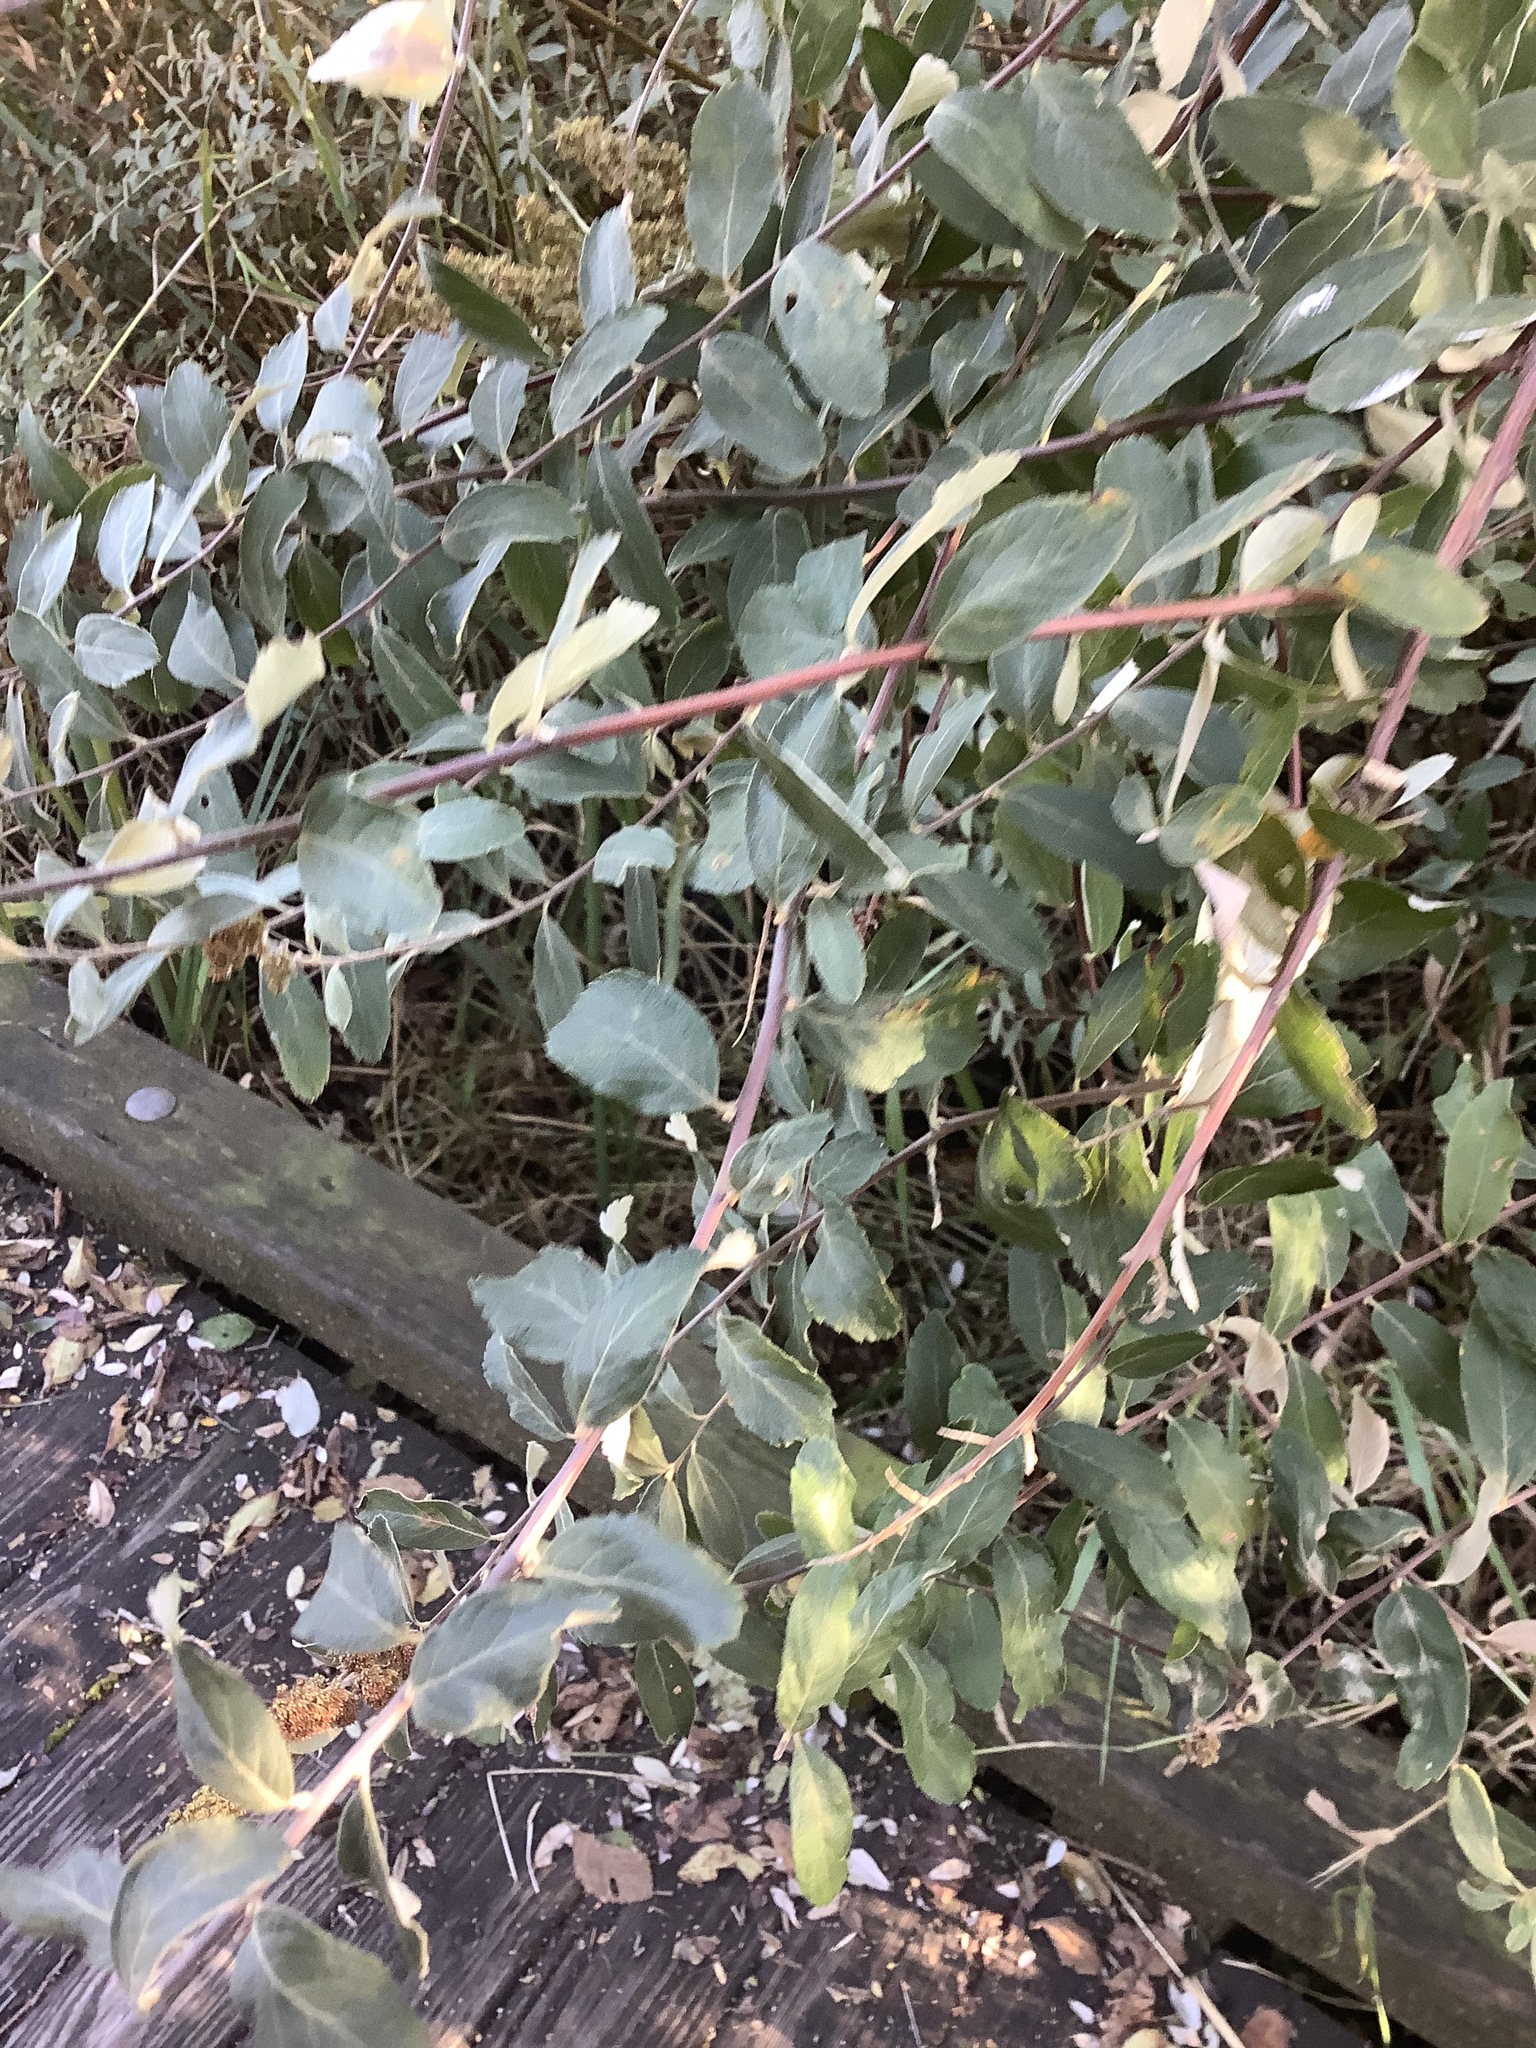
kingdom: Plantae
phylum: Tracheophyta
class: Magnoliopsida
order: Rosales
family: Rosaceae
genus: Spiraea
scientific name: Spiraea douglasii
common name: Steeplebush
